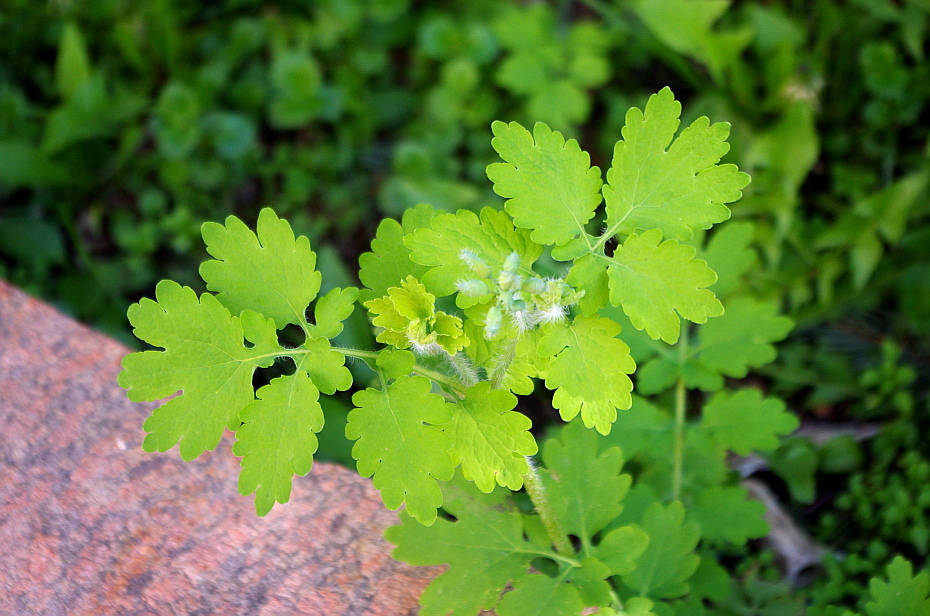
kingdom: Plantae
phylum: Tracheophyta
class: Magnoliopsida
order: Ranunculales
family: Papaveraceae
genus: Chelidonium
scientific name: Chelidonium majus
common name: Greater celandine
